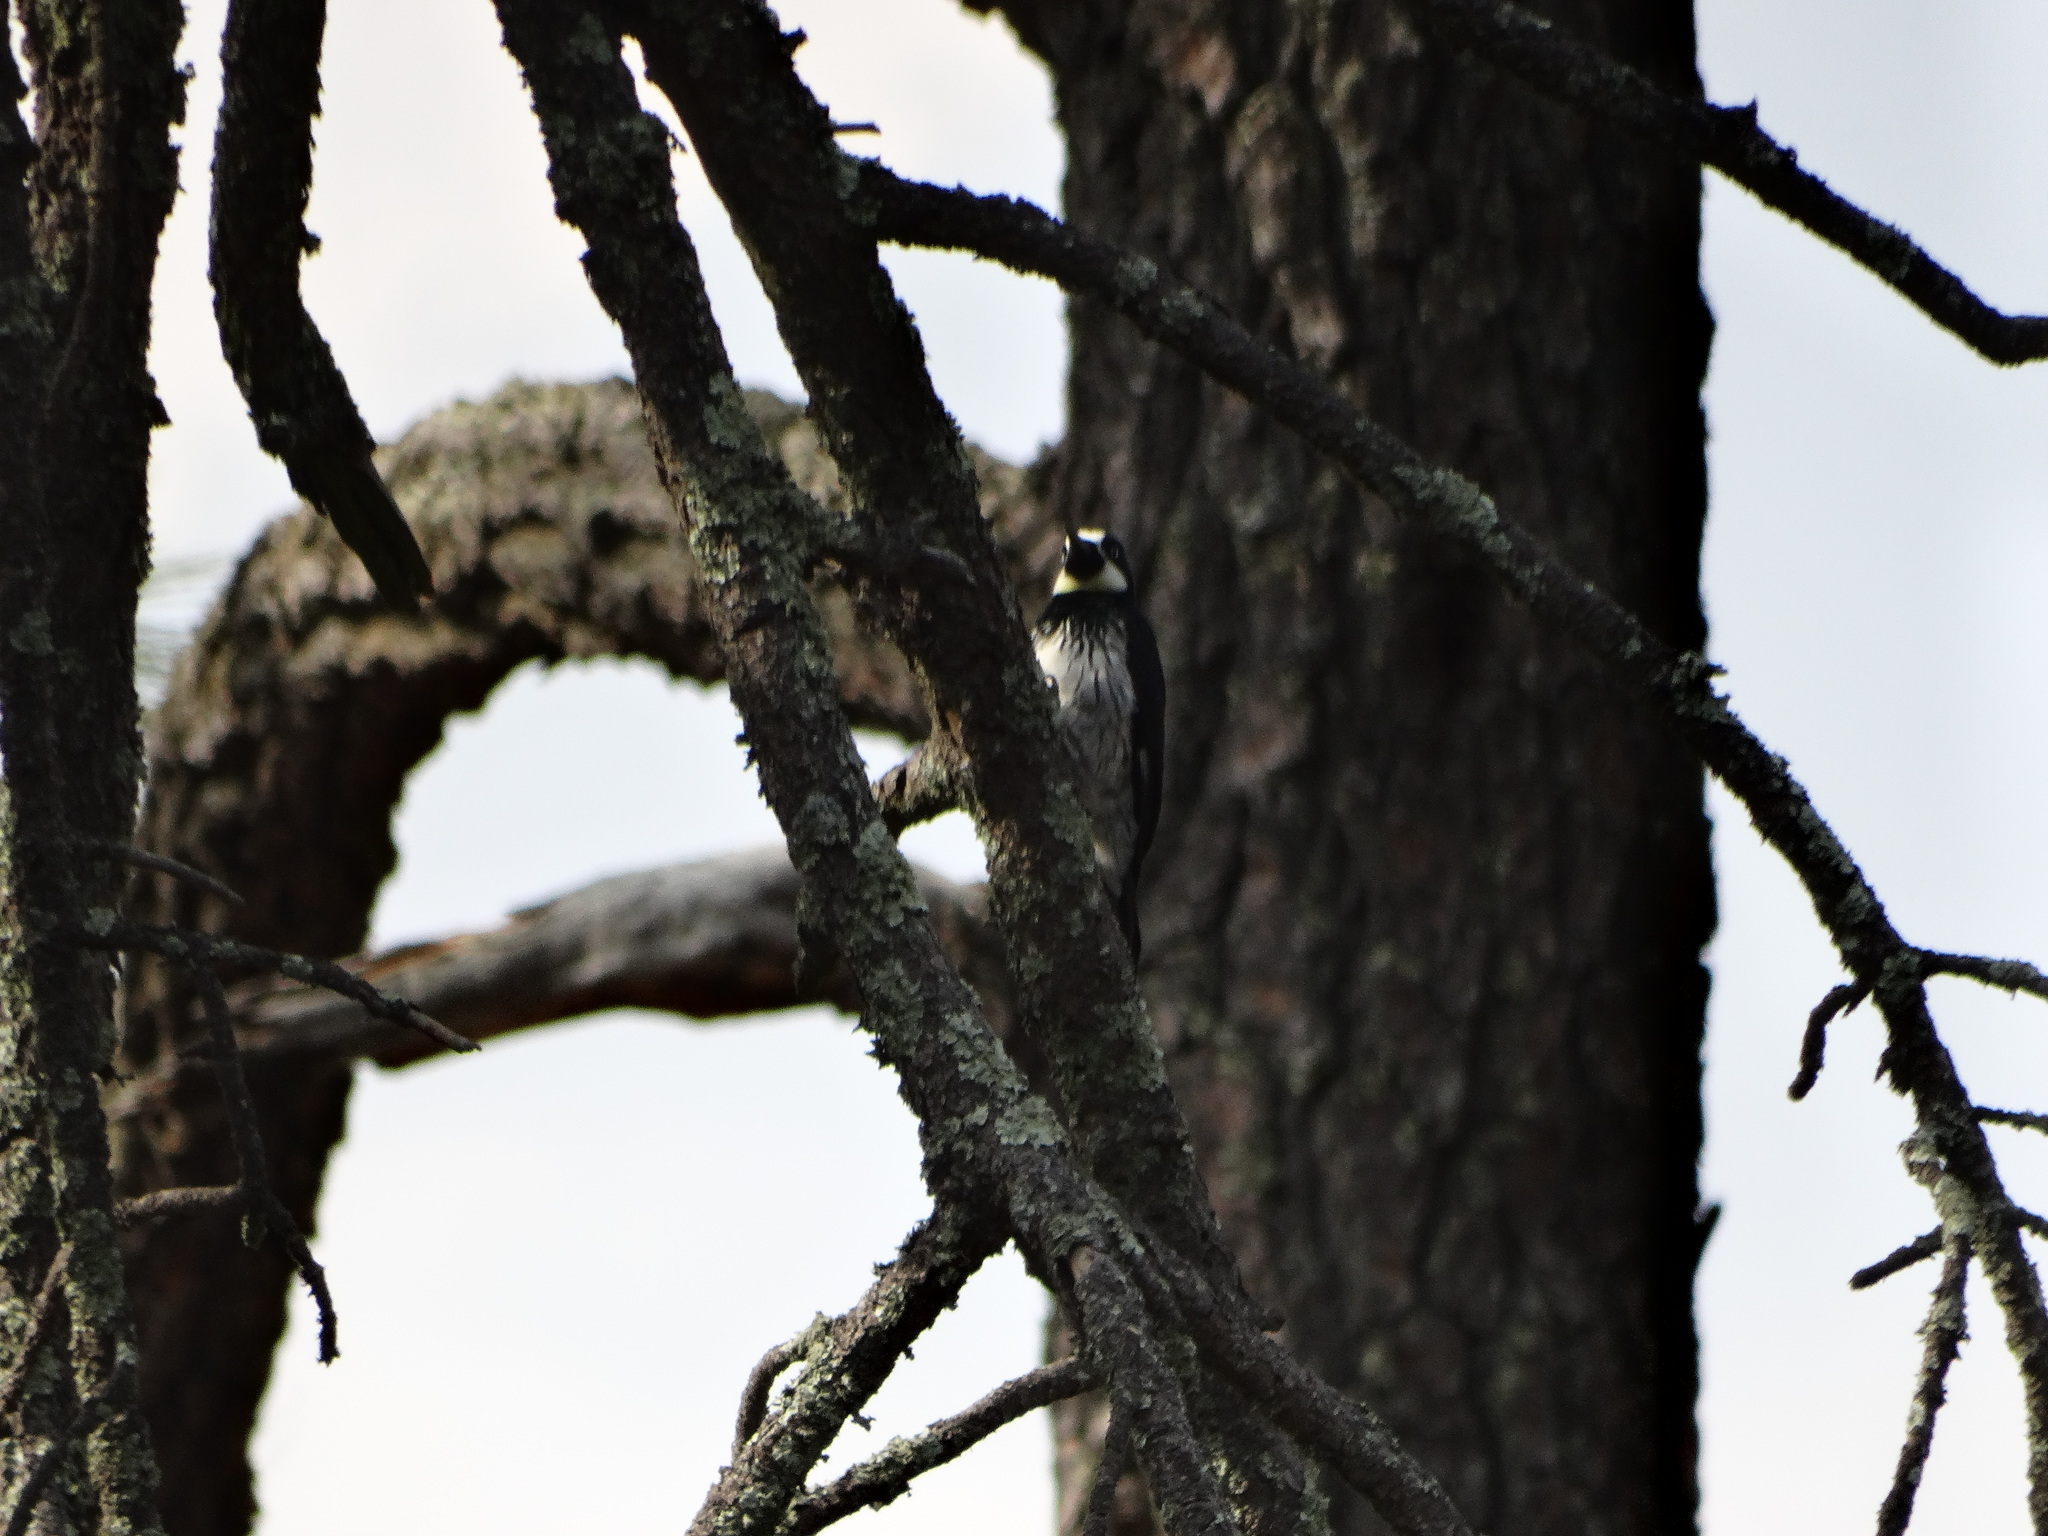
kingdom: Animalia
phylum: Chordata
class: Aves
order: Piciformes
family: Picidae
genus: Melanerpes
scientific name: Melanerpes formicivorus
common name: Acorn woodpecker
